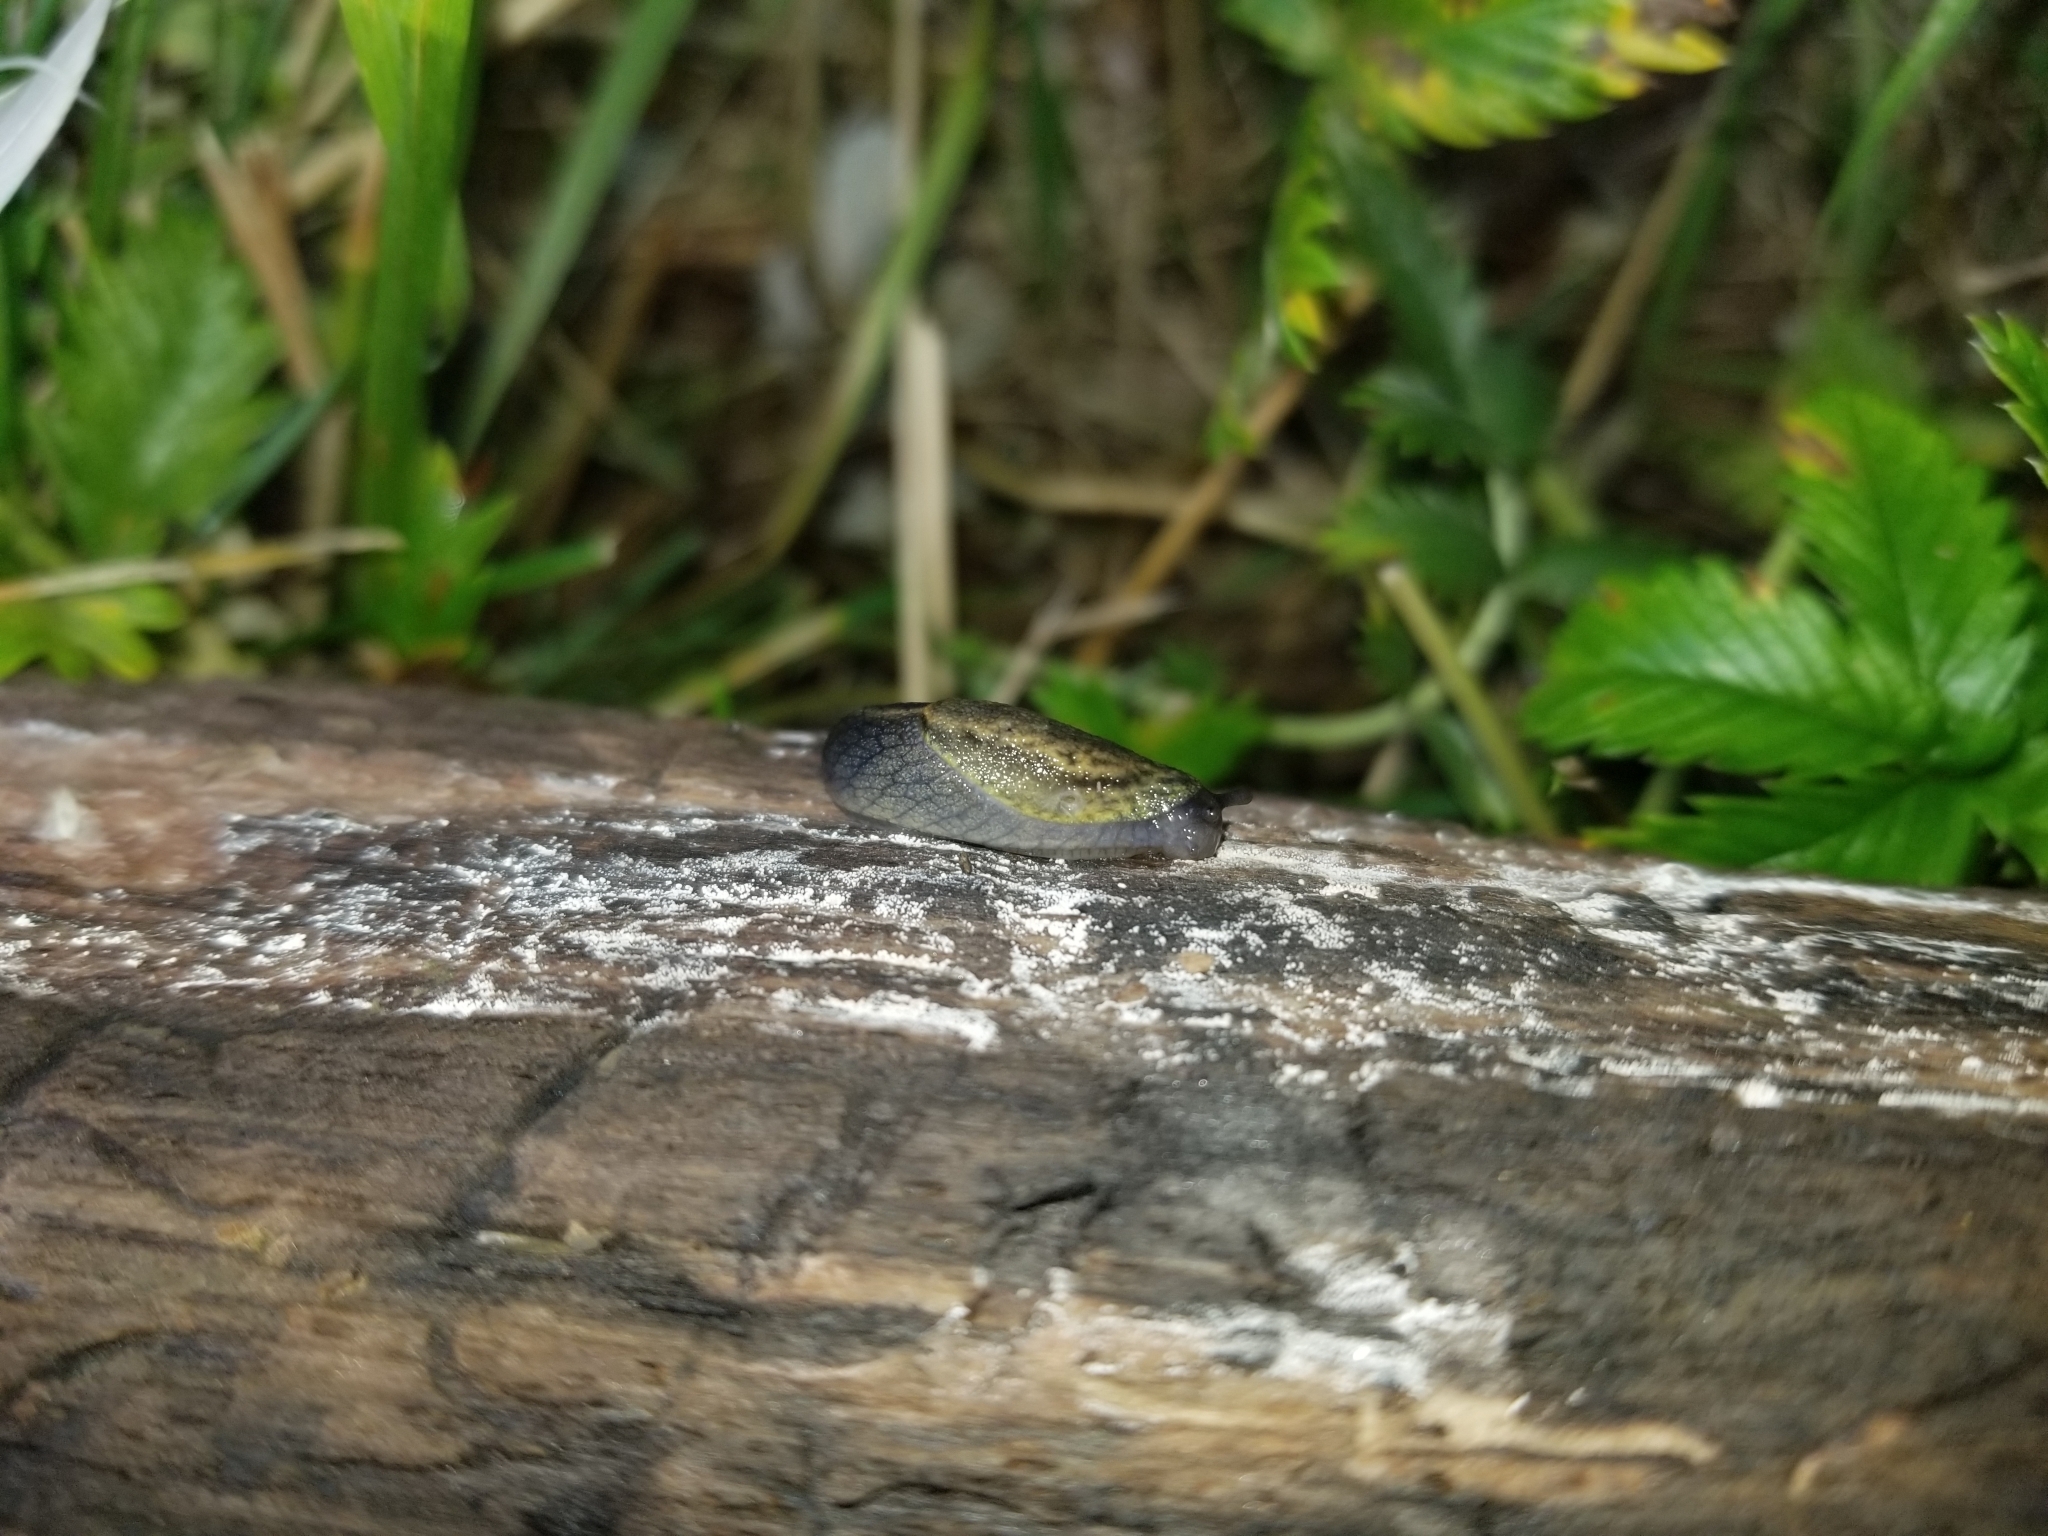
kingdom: Animalia
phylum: Mollusca
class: Gastropoda
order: Stylommatophora
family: Ariolimacidae
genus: Prophysaon
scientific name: Prophysaon andersonii
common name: Reticulate taildropper
